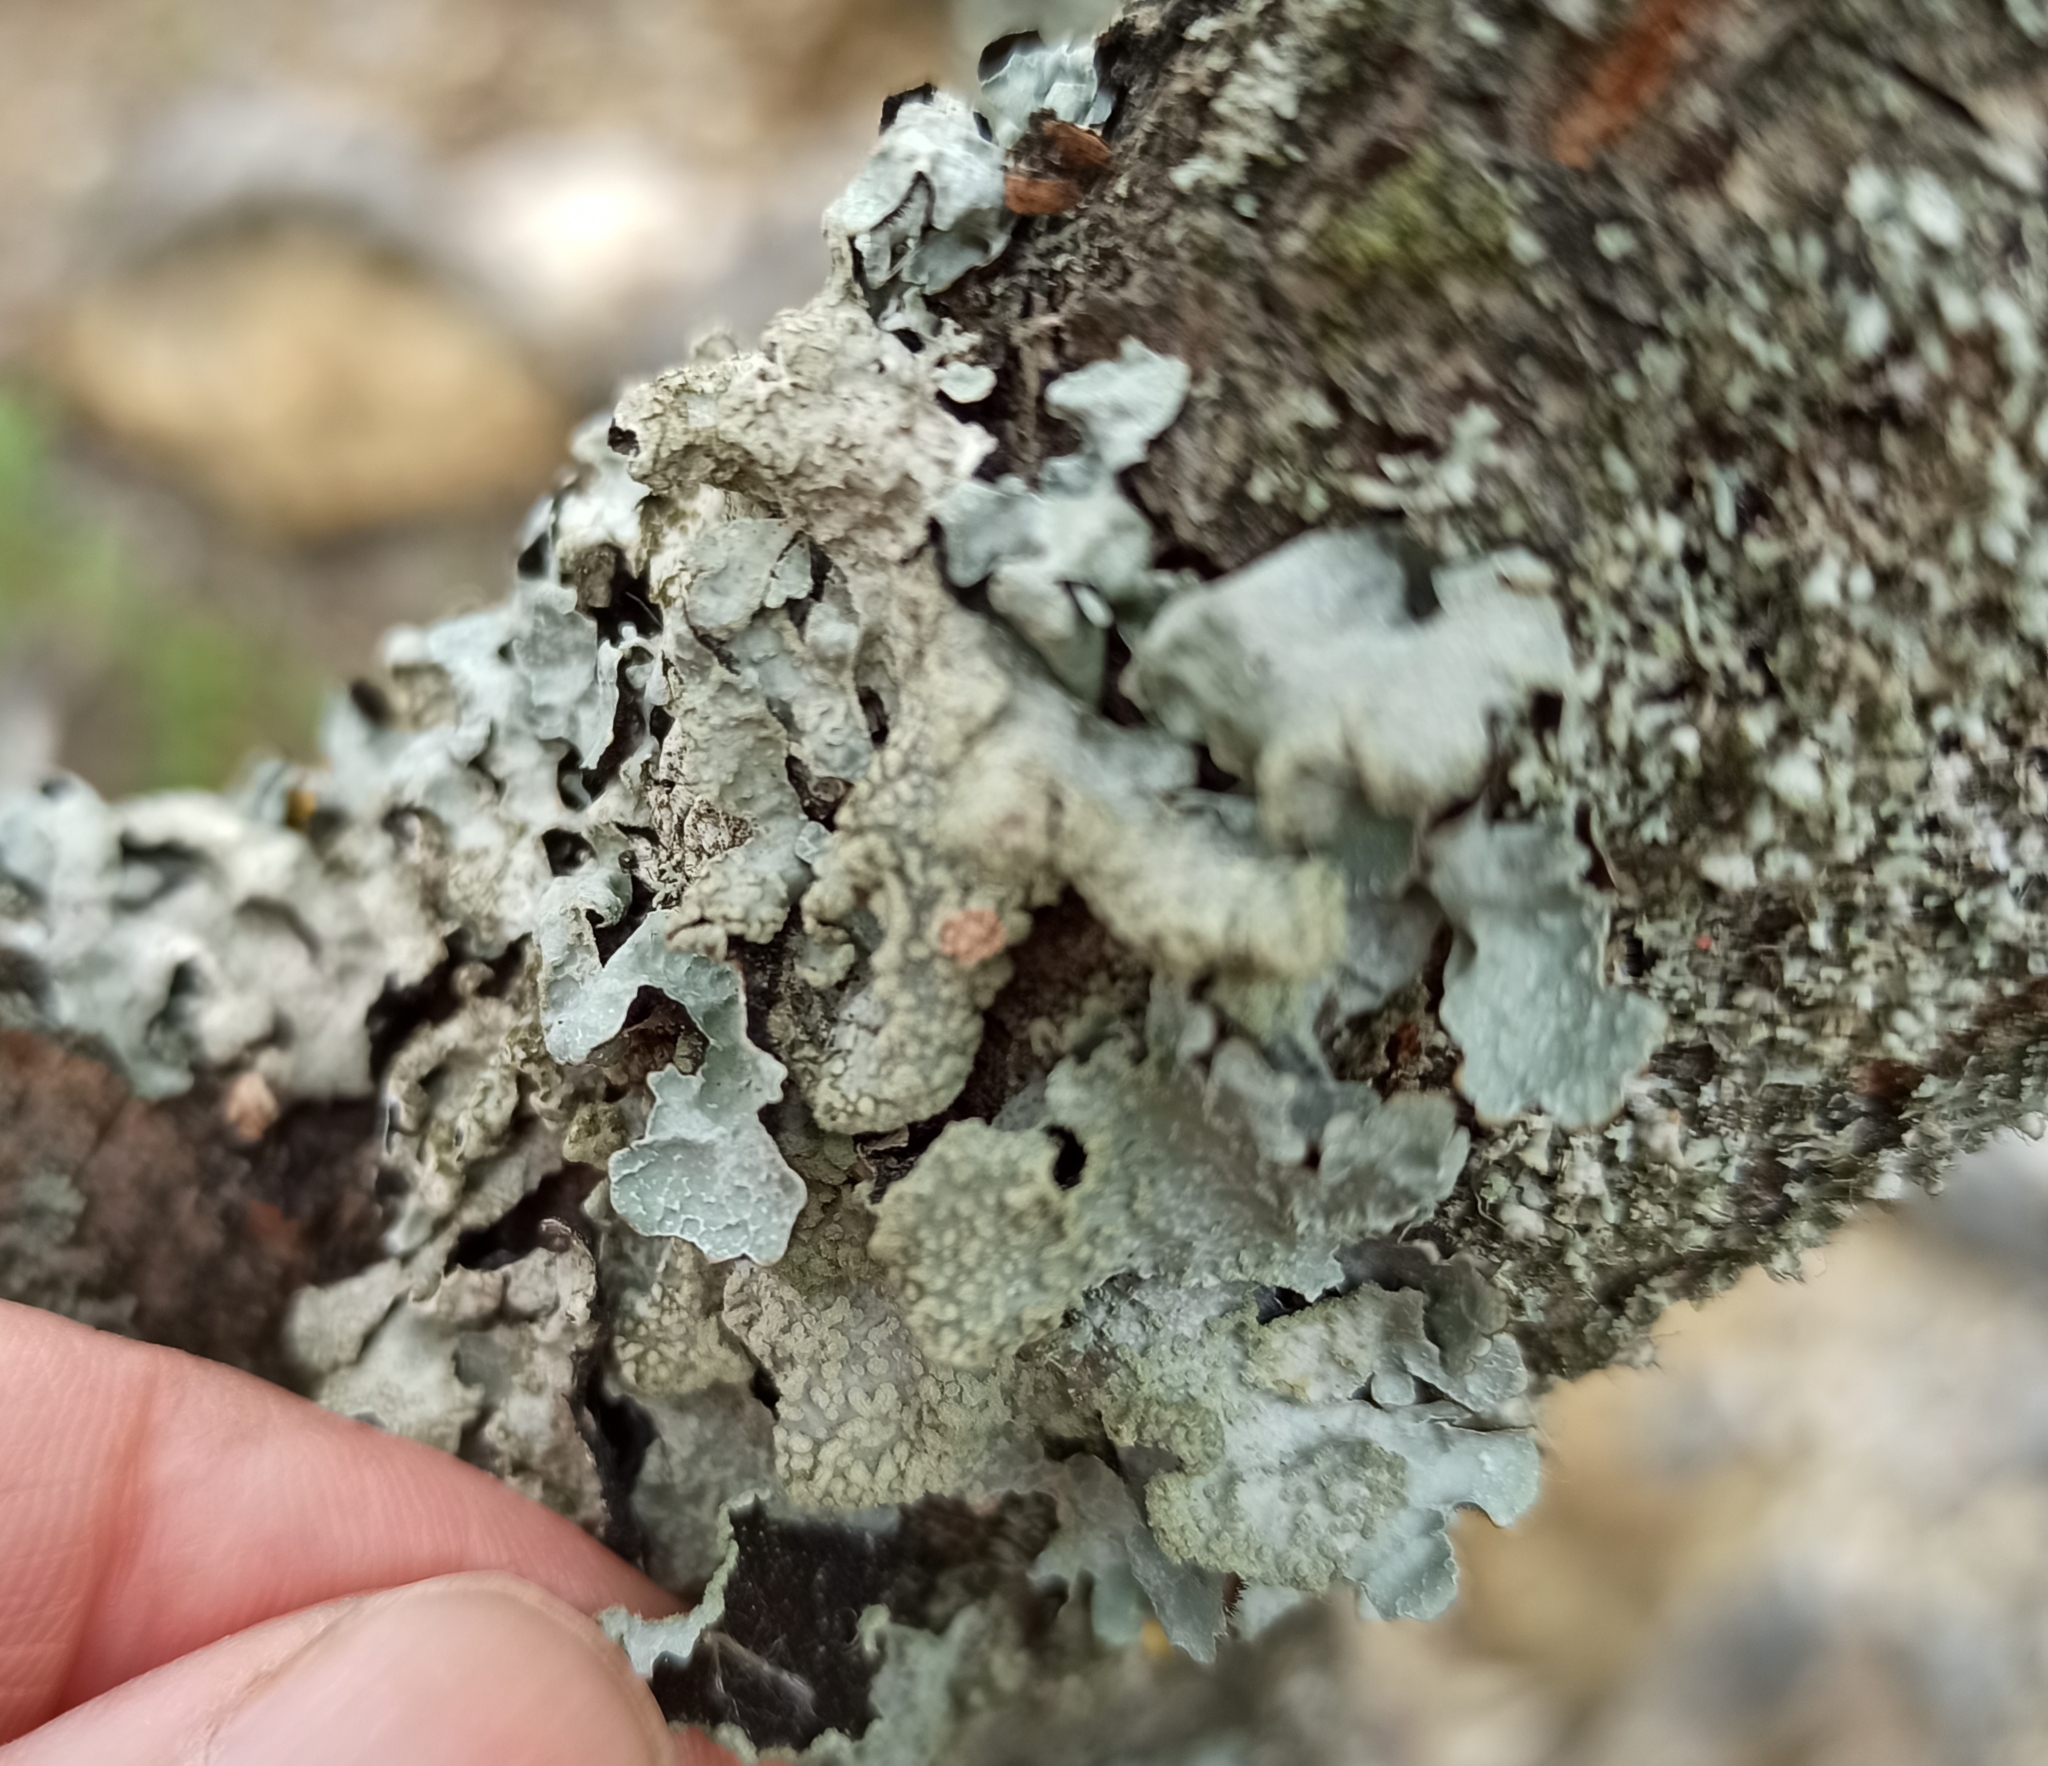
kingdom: Fungi
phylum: Ascomycota
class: Lecanoromycetes
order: Lecanorales
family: Parmeliaceae
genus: Parmelia
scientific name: Parmelia sulcata
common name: Netted shield lichen
